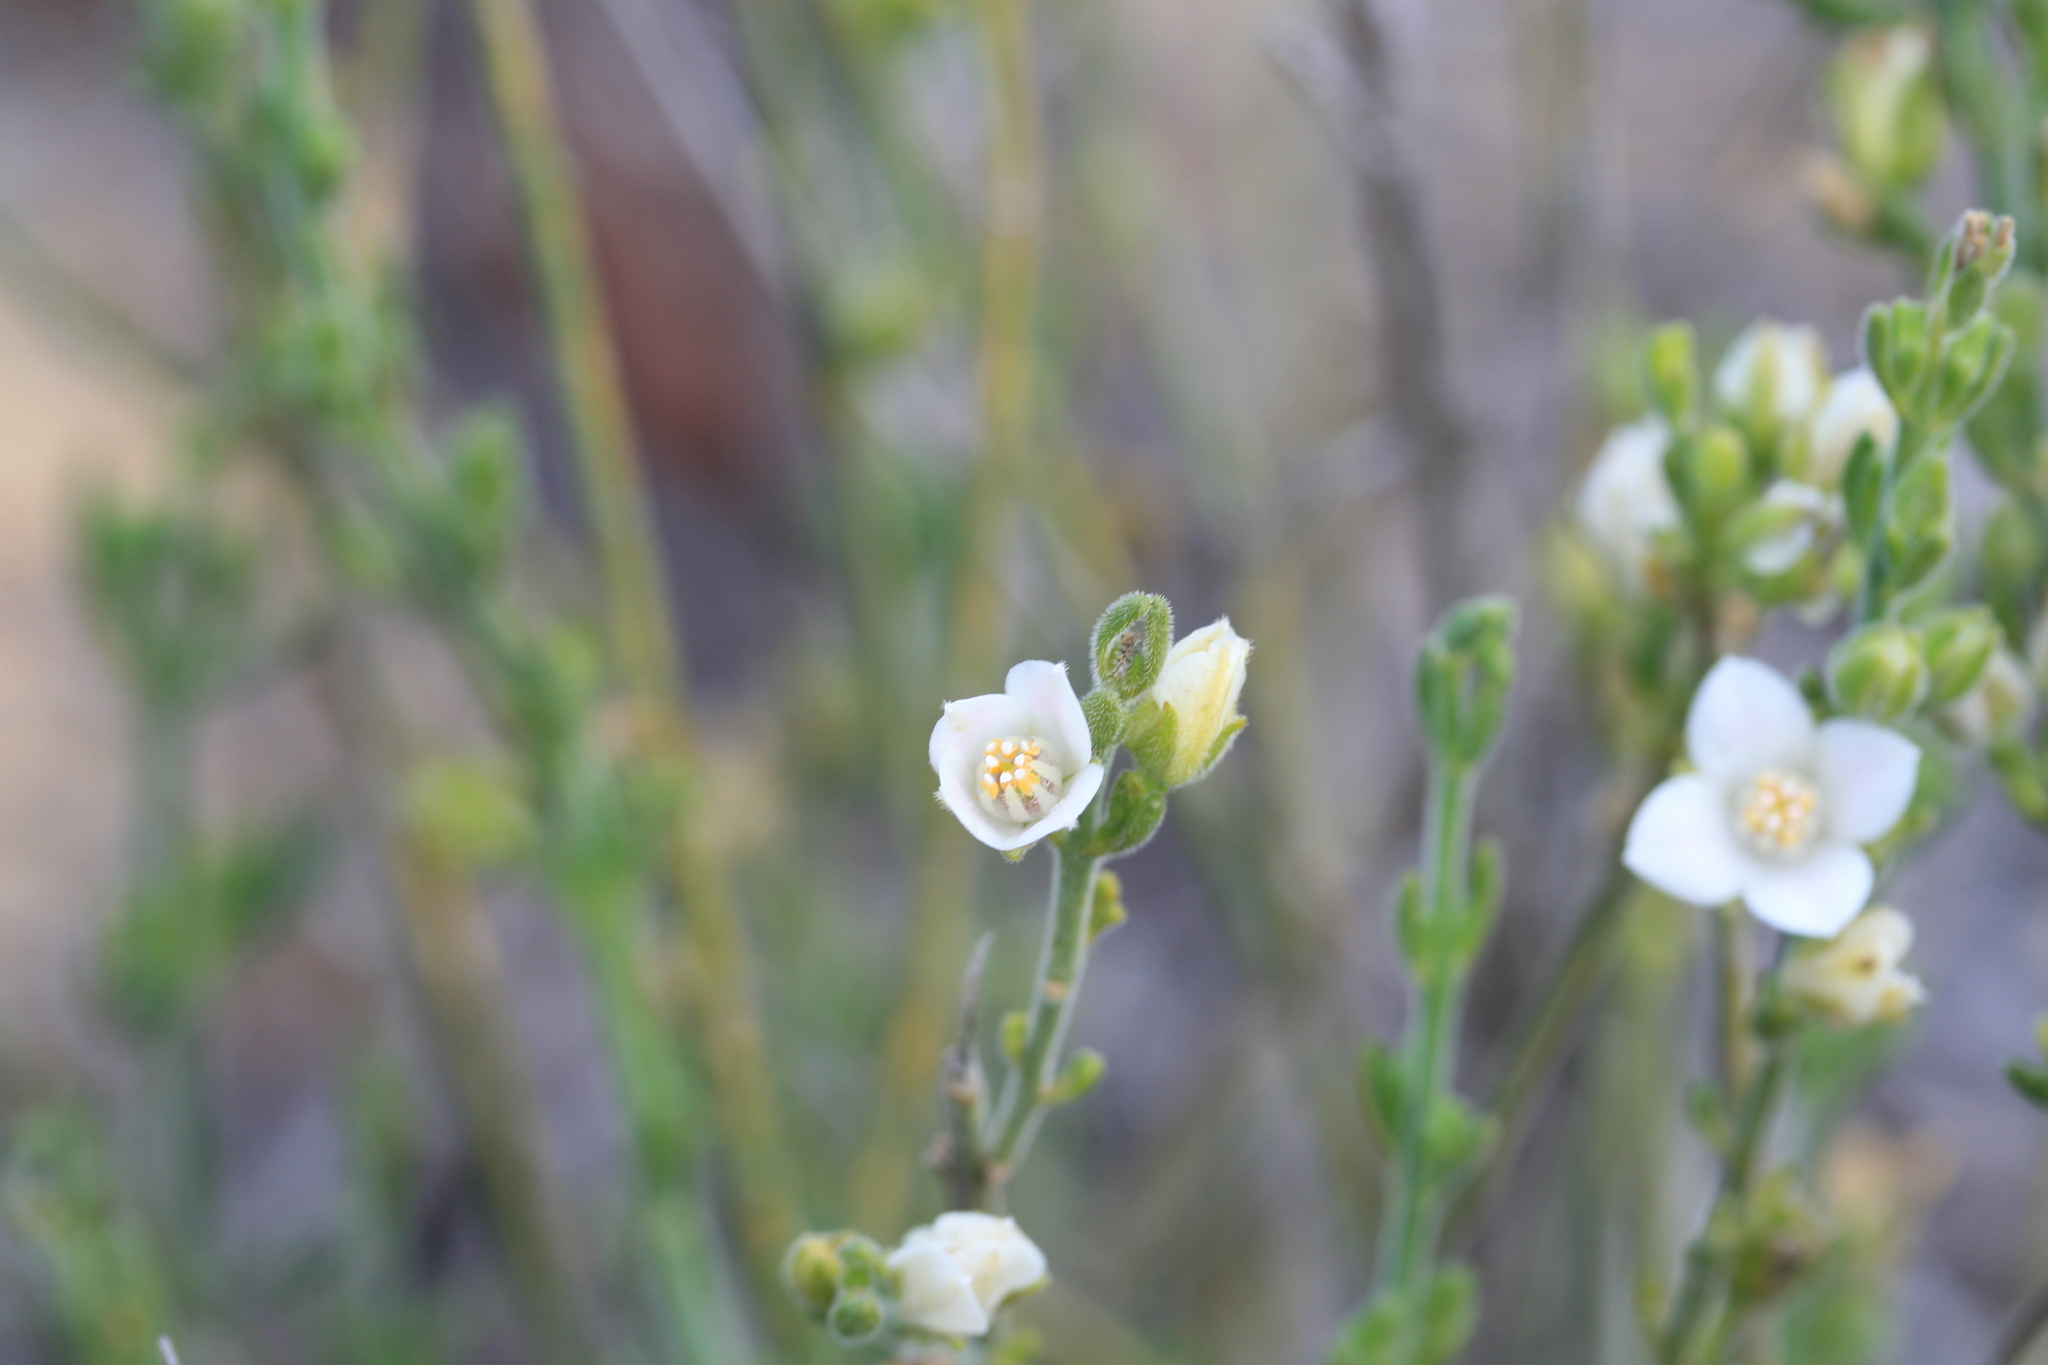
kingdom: Plantae
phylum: Tracheophyta
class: Magnoliopsida
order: Sapindales
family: Rutaceae
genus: Cyanothamnus
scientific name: Cyanothamnus coerulescens
